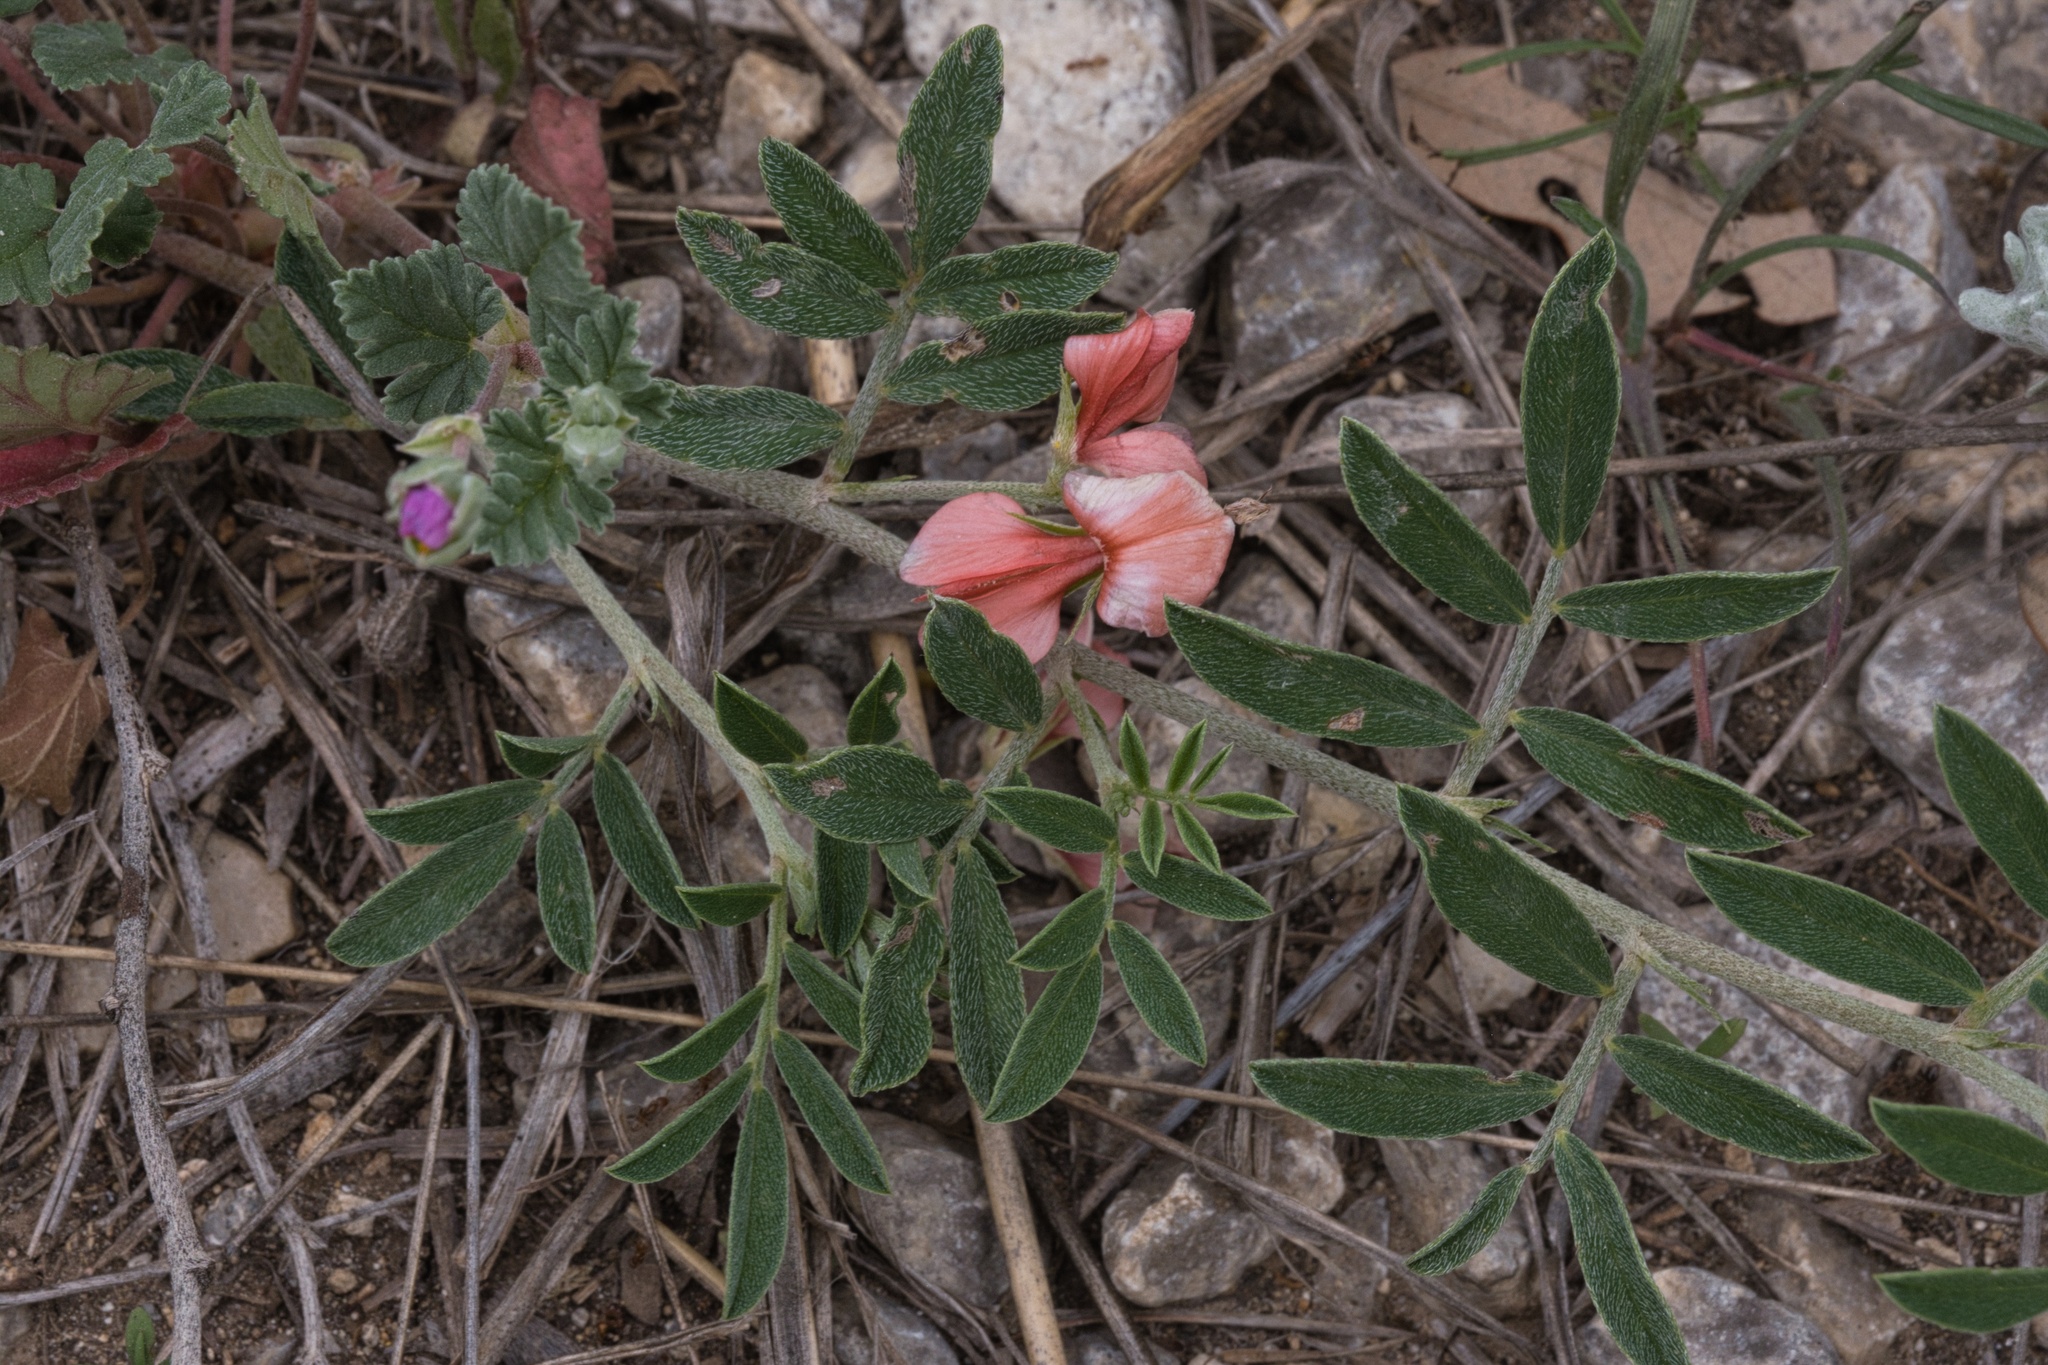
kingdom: Plantae
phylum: Tracheophyta
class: Magnoliopsida
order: Fabales
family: Fabaceae
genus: Indigofera
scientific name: Indigofera miniata
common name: Coast indigo
